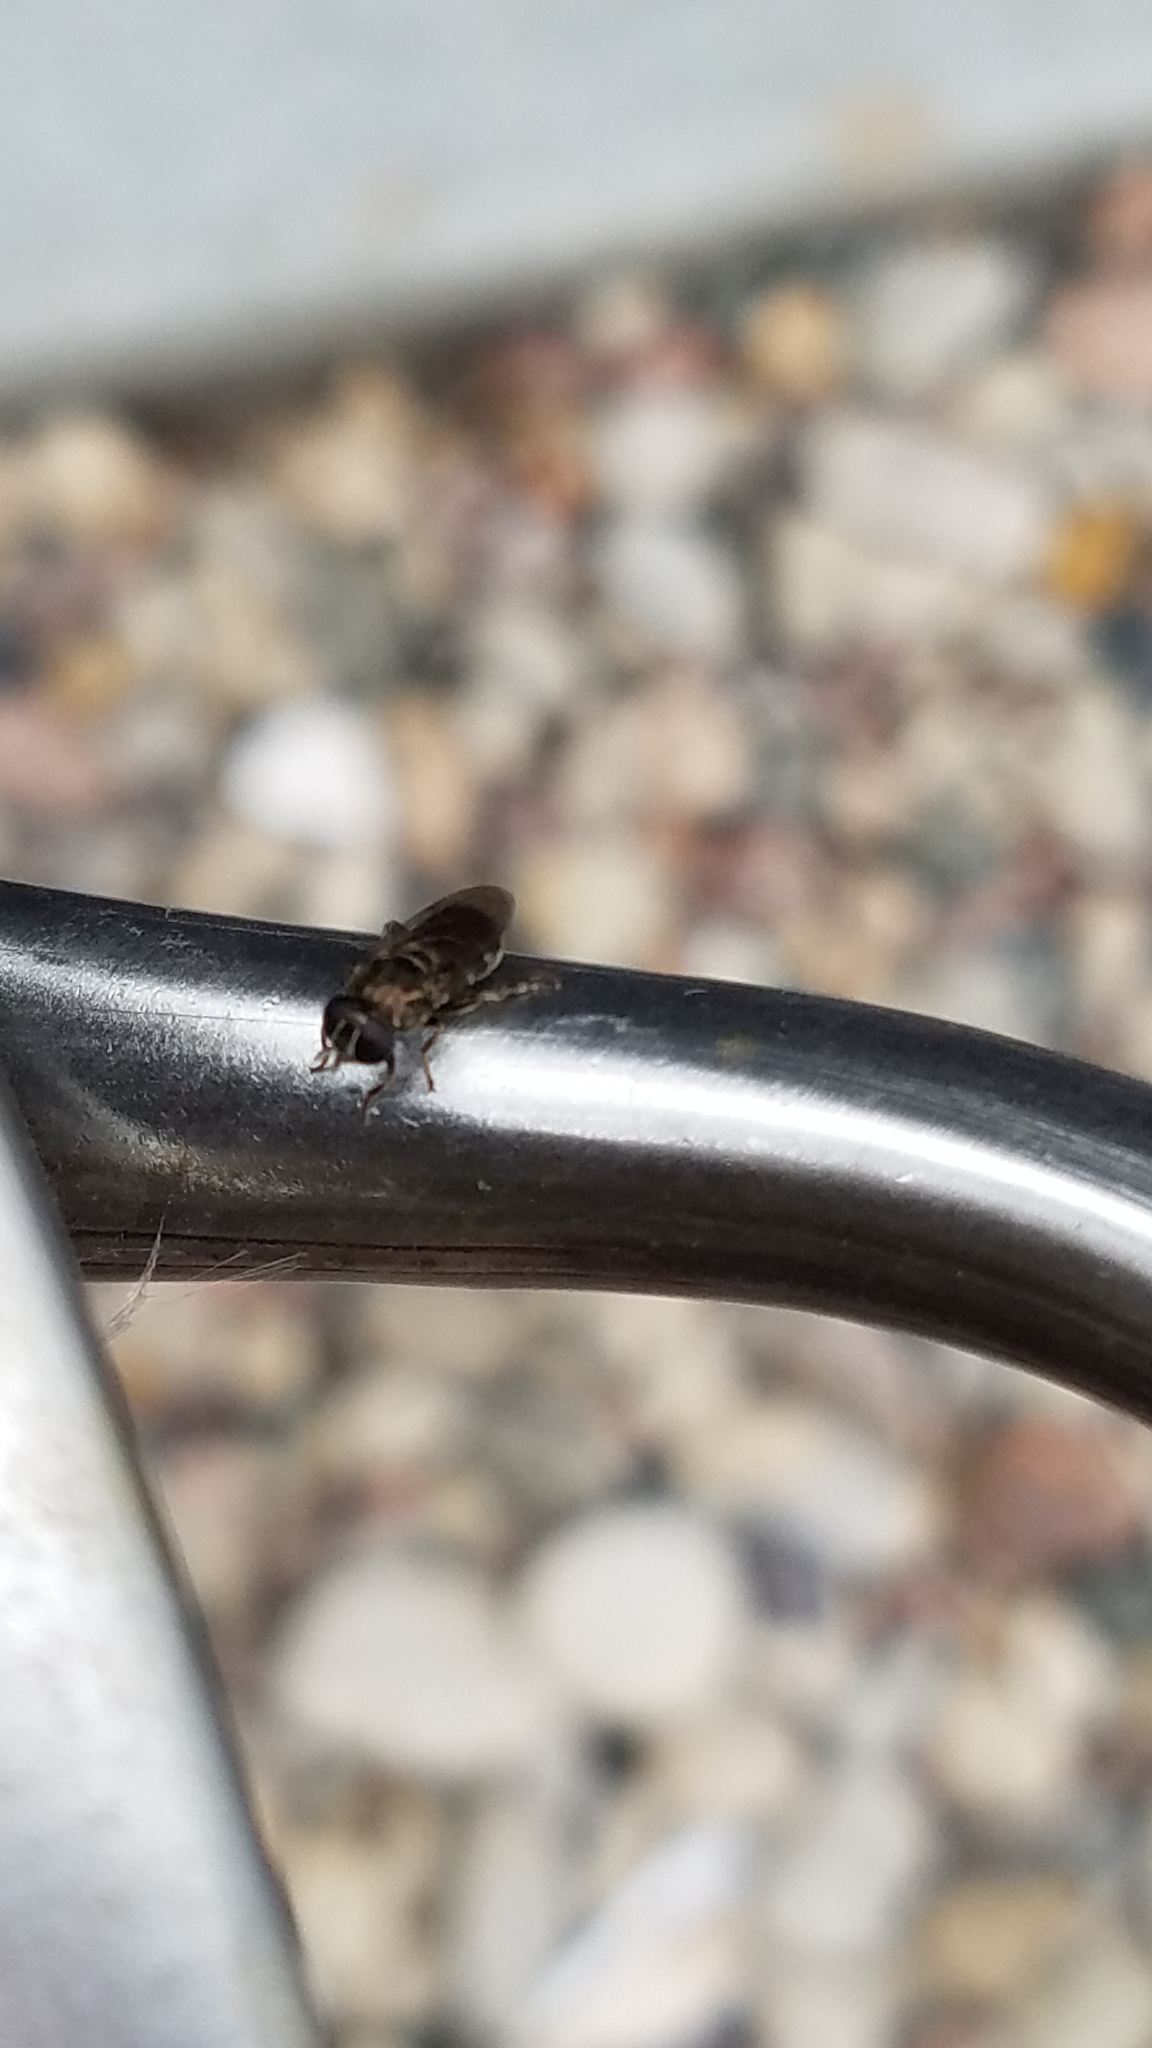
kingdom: Animalia
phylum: Arthropoda
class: Insecta
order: Diptera
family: Syrphidae
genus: Eumerus
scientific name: Eumerus
